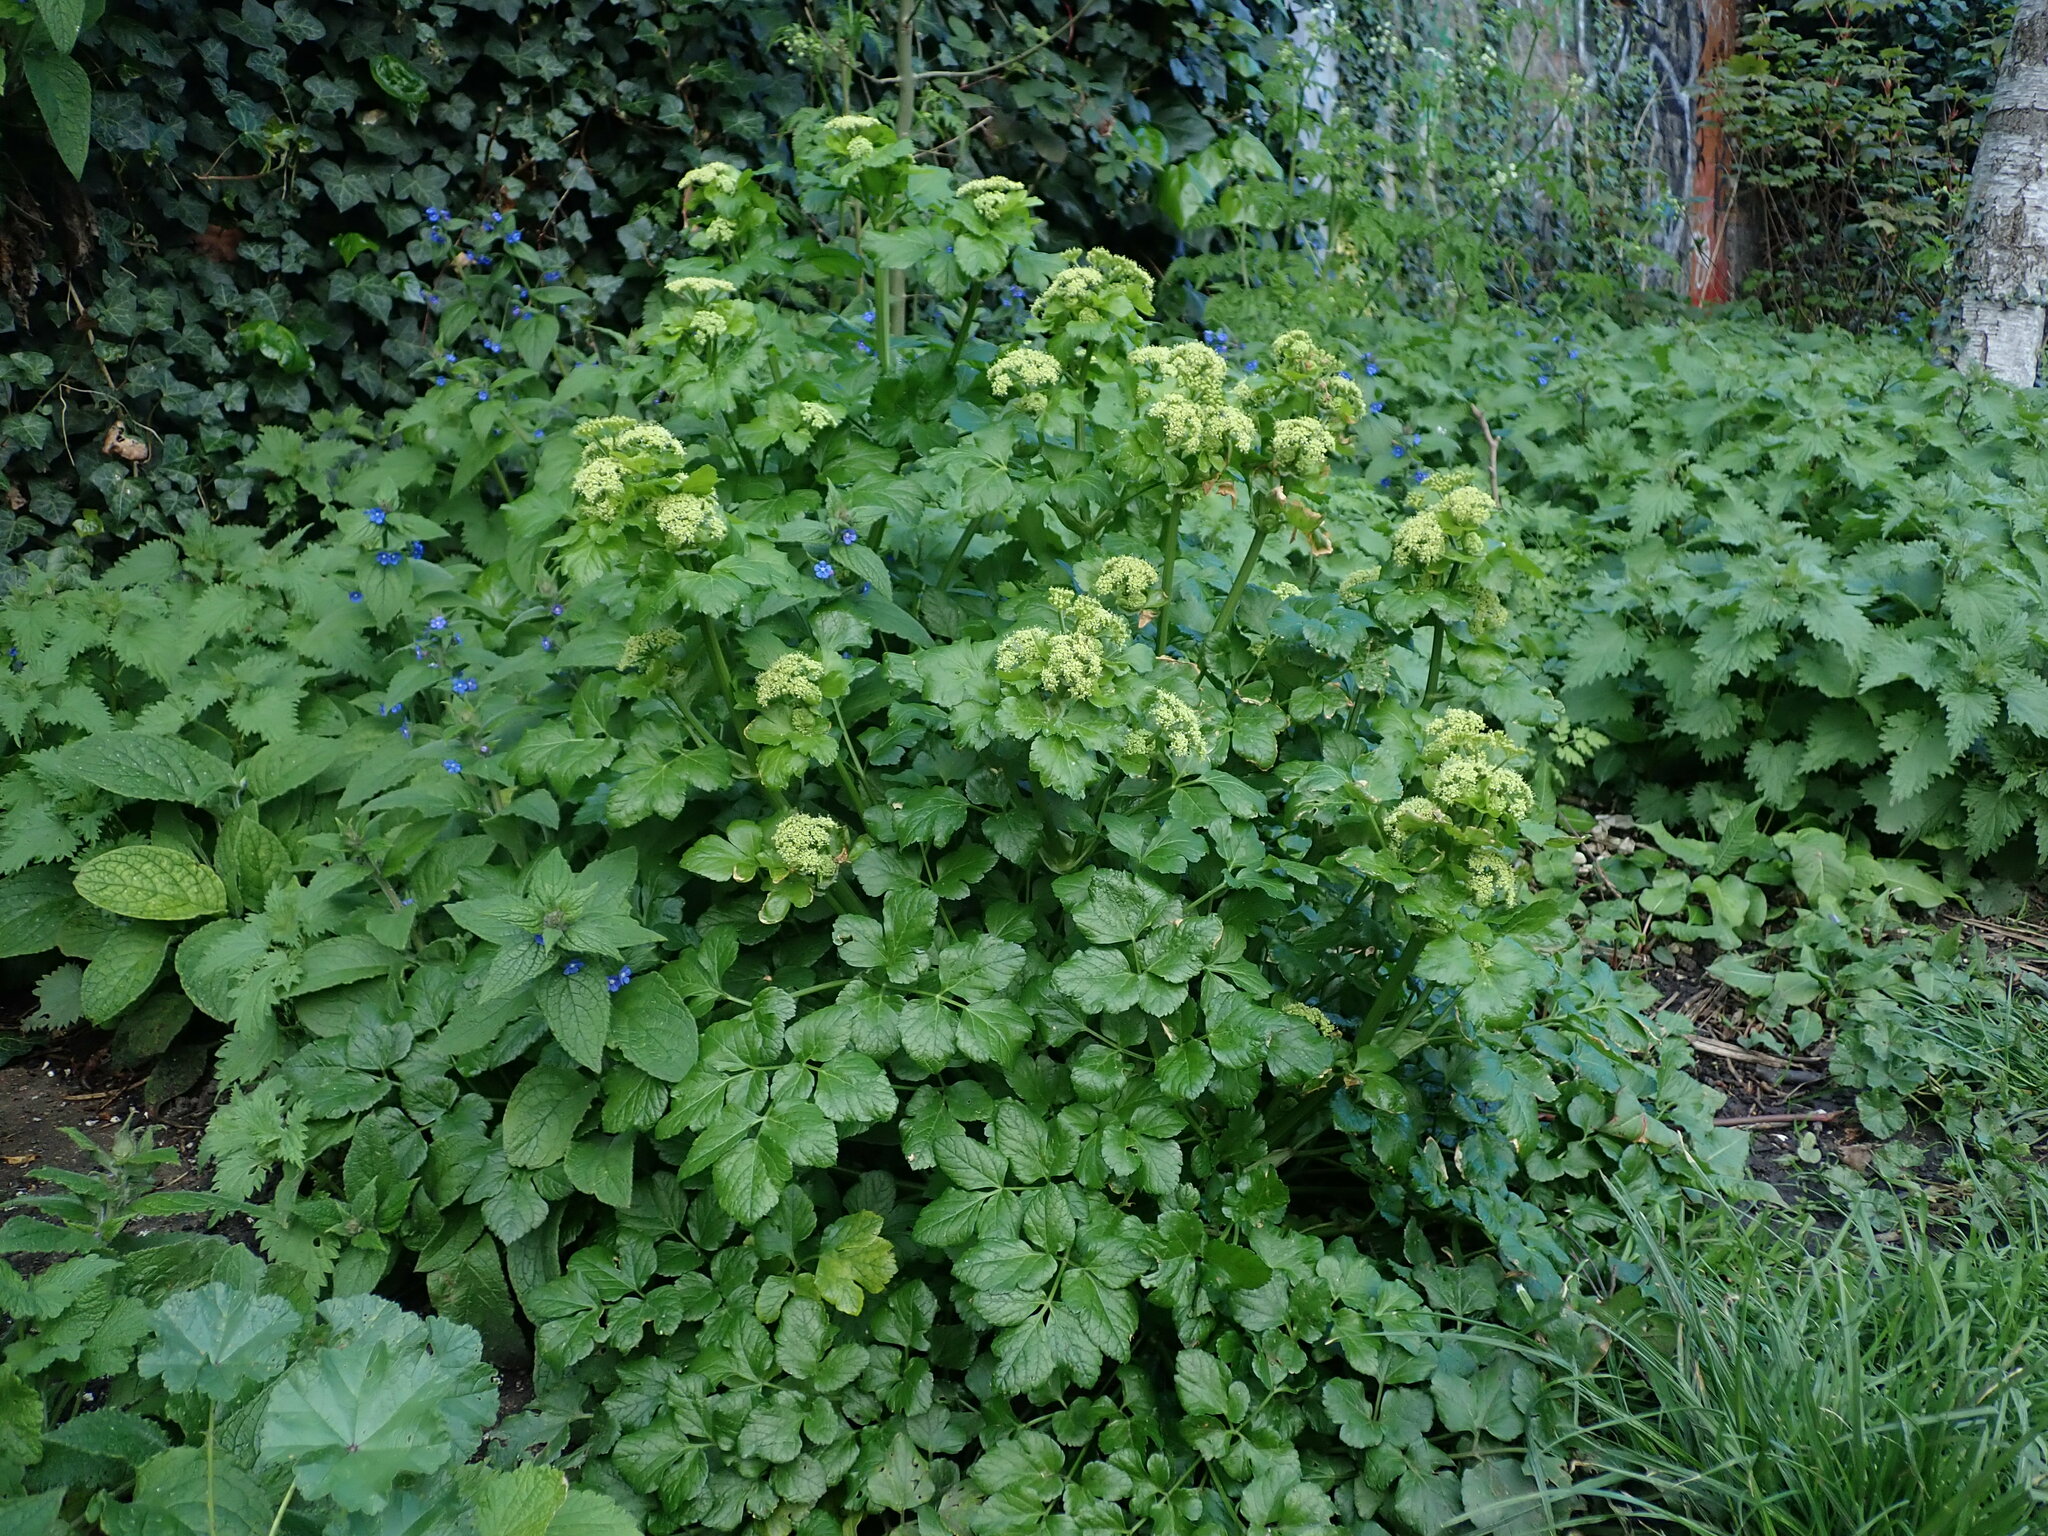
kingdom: Plantae
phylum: Tracheophyta
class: Magnoliopsida
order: Apiales
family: Apiaceae
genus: Smyrnium
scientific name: Smyrnium olusatrum
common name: Alexanders
